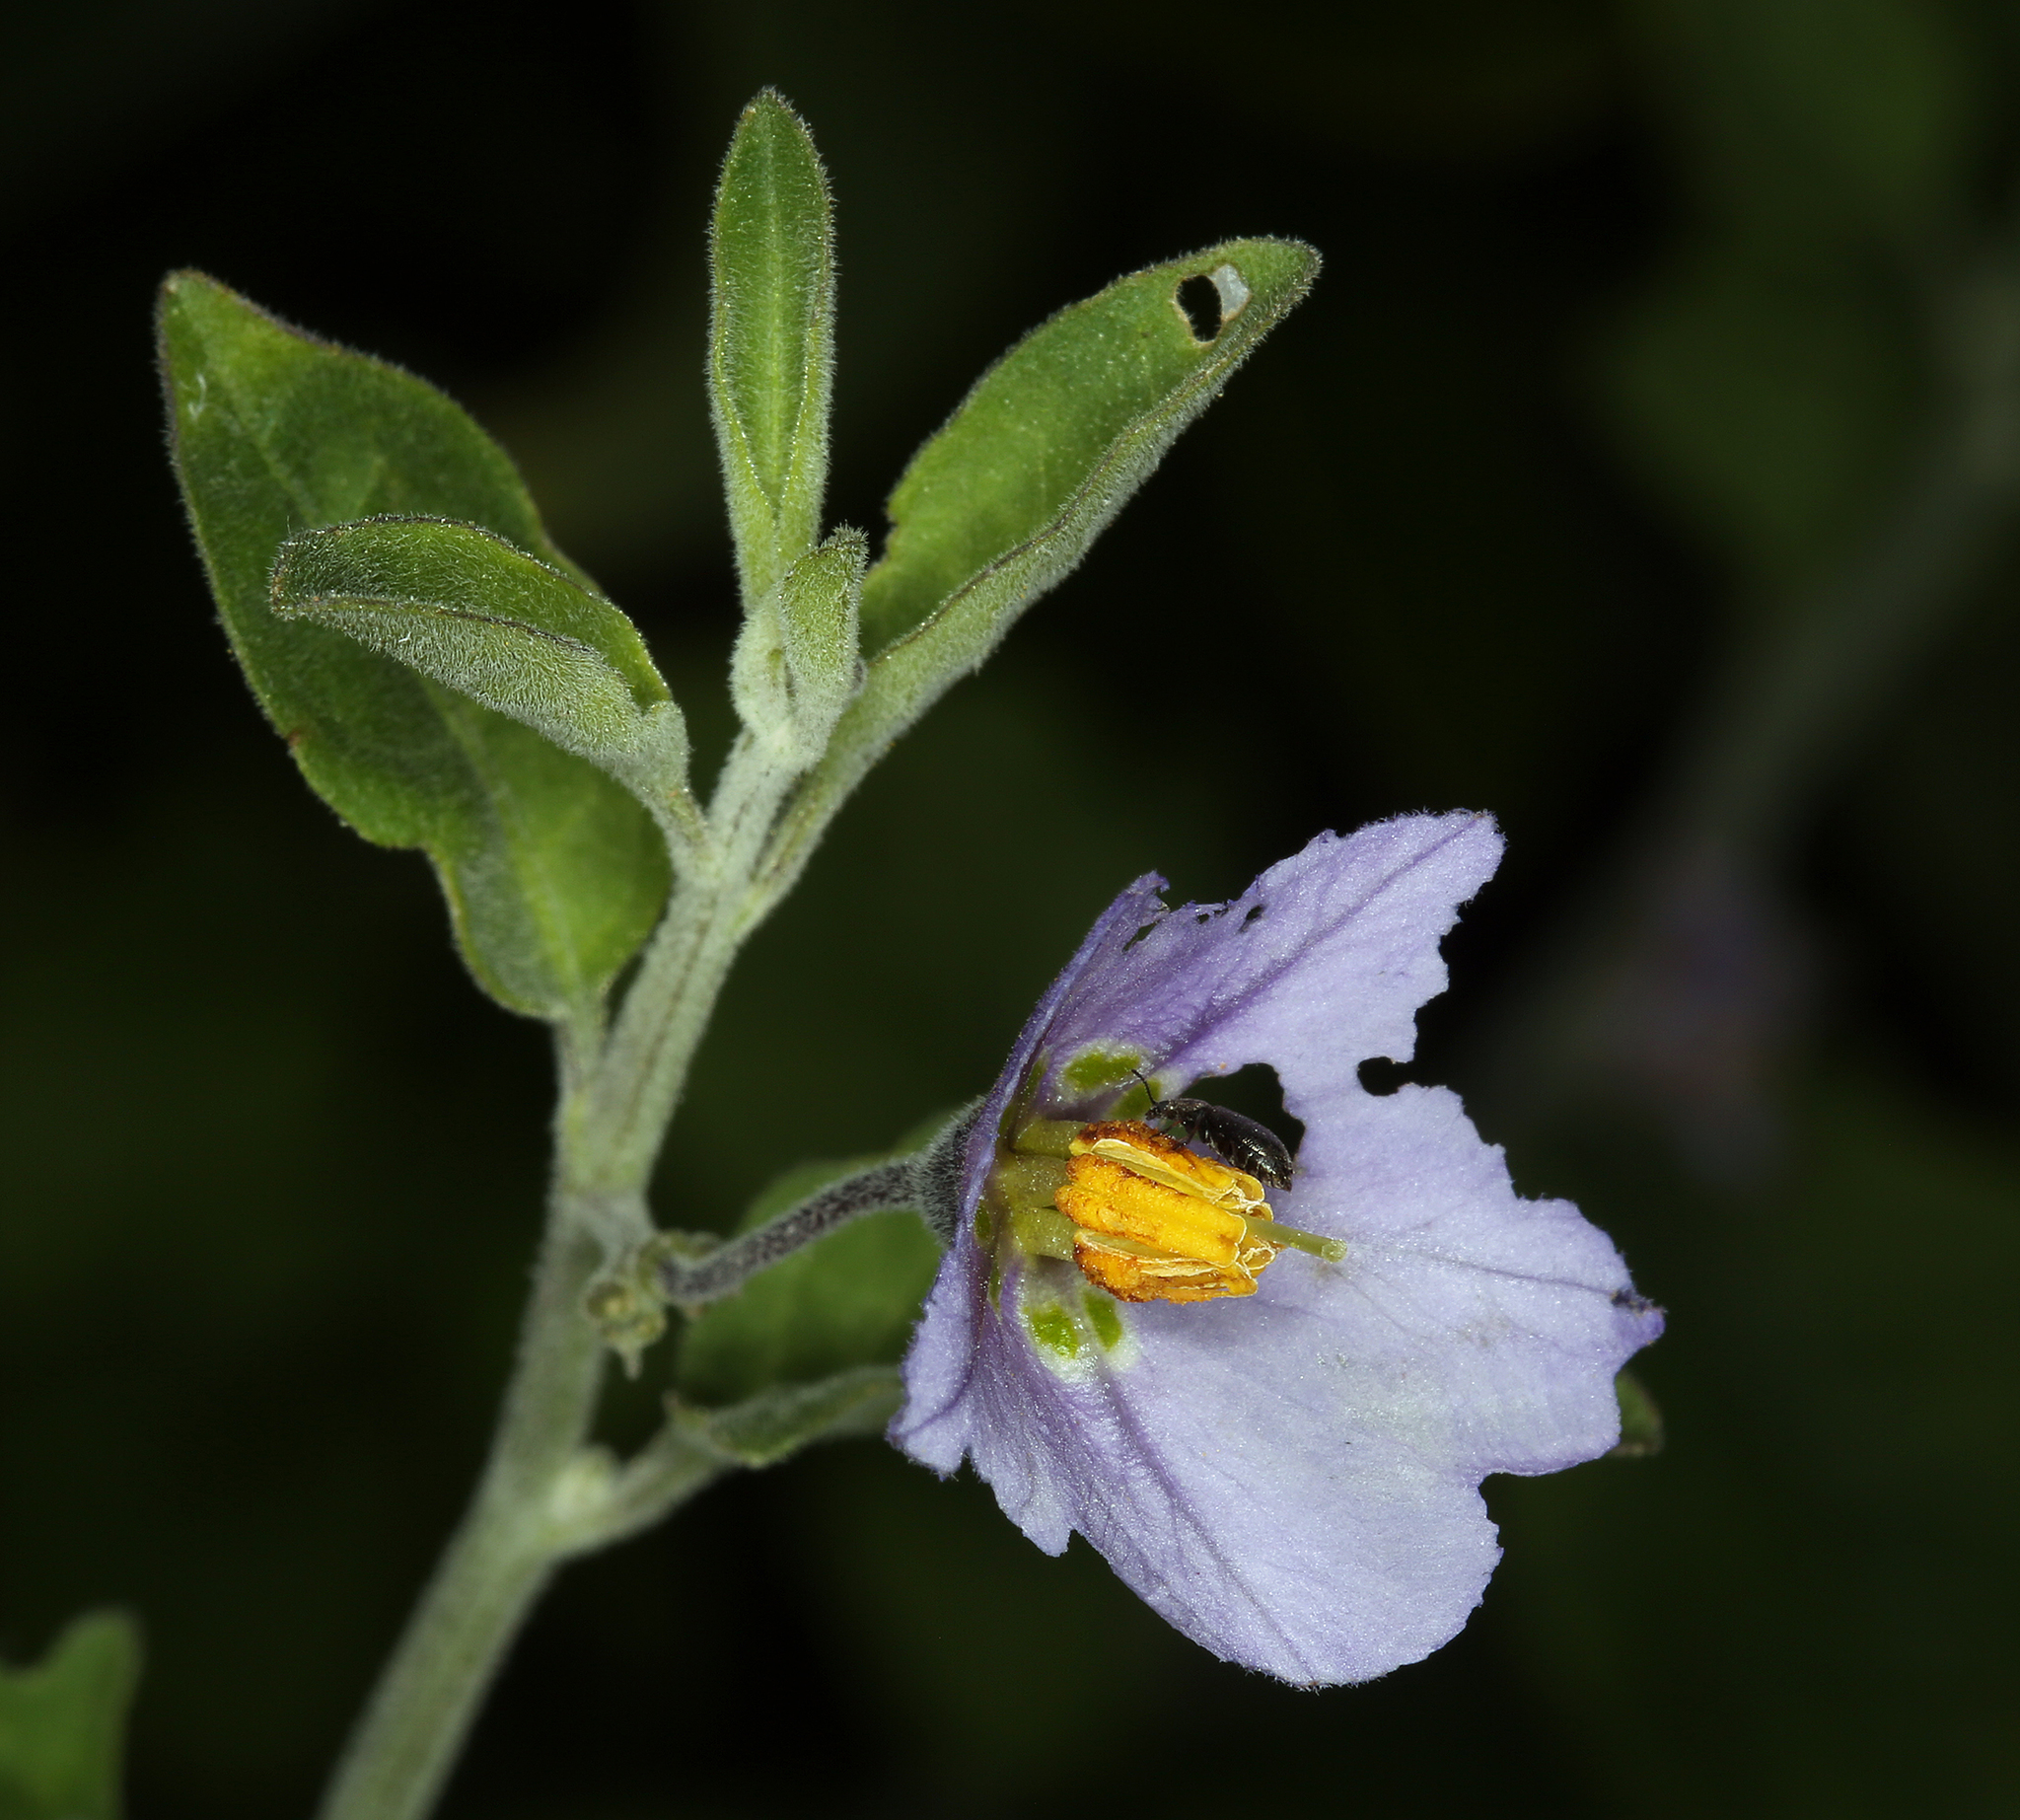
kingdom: Plantae
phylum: Tracheophyta
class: Magnoliopsida
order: Solanales
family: Solanaceae
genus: Solanum
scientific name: Solanum umbelliferum
